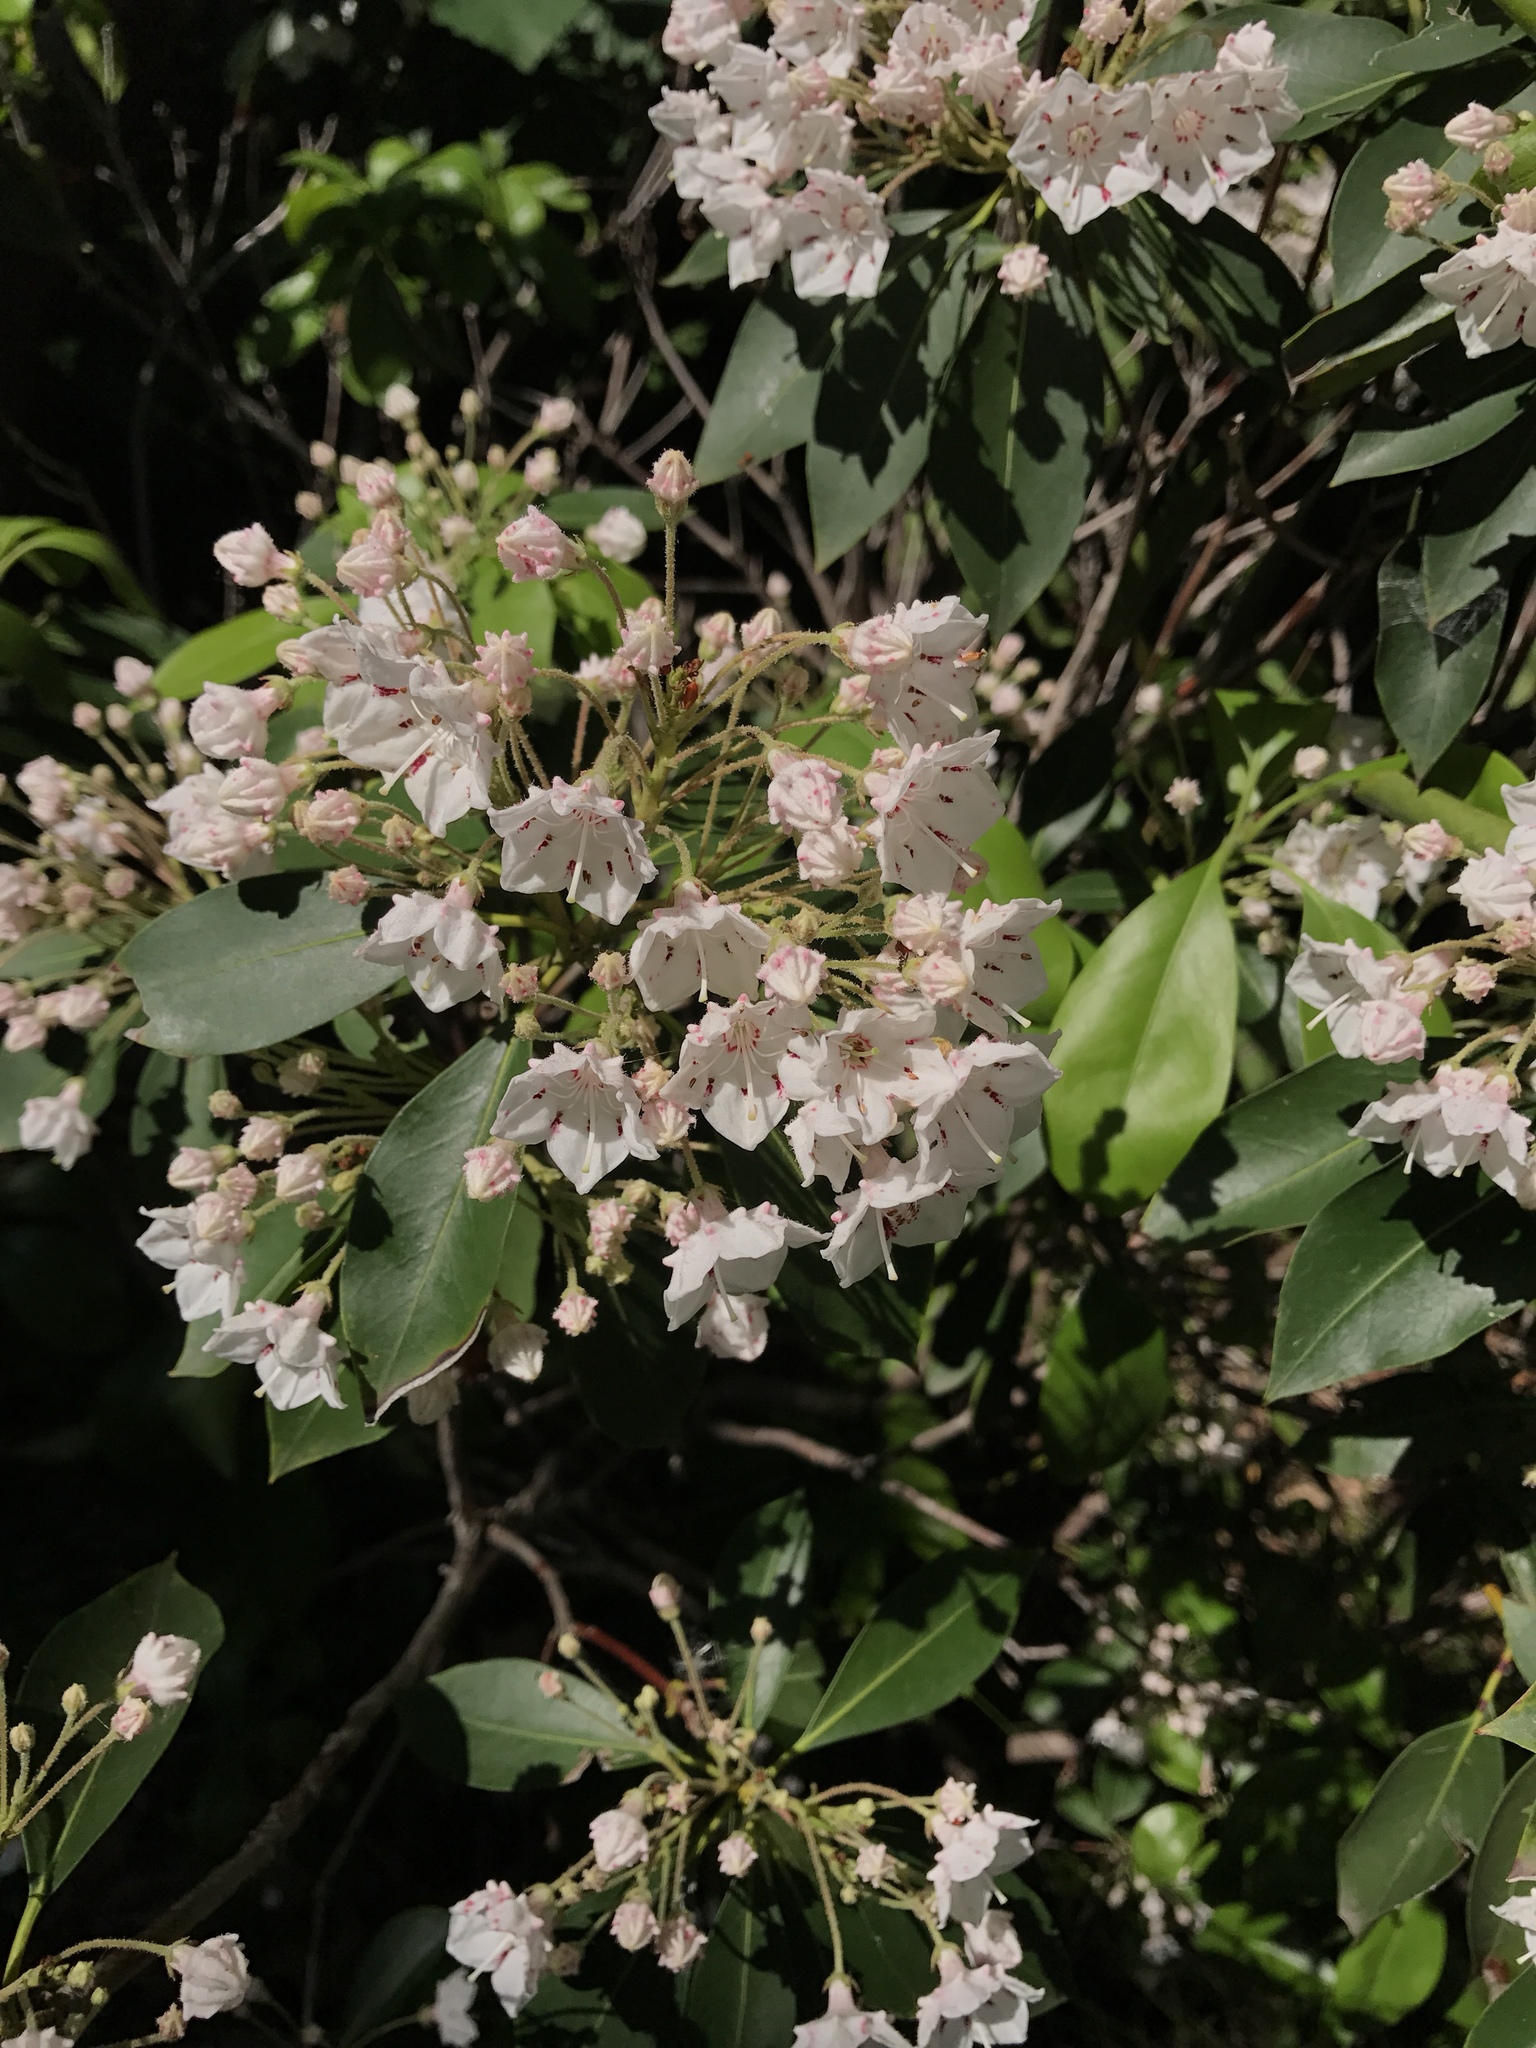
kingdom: Plantae
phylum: Tracheophyta
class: Magnoliopsida
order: Ericales
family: Ericaceae
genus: Kalmia
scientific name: Kalmia latifolia
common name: Mountain-laurel
